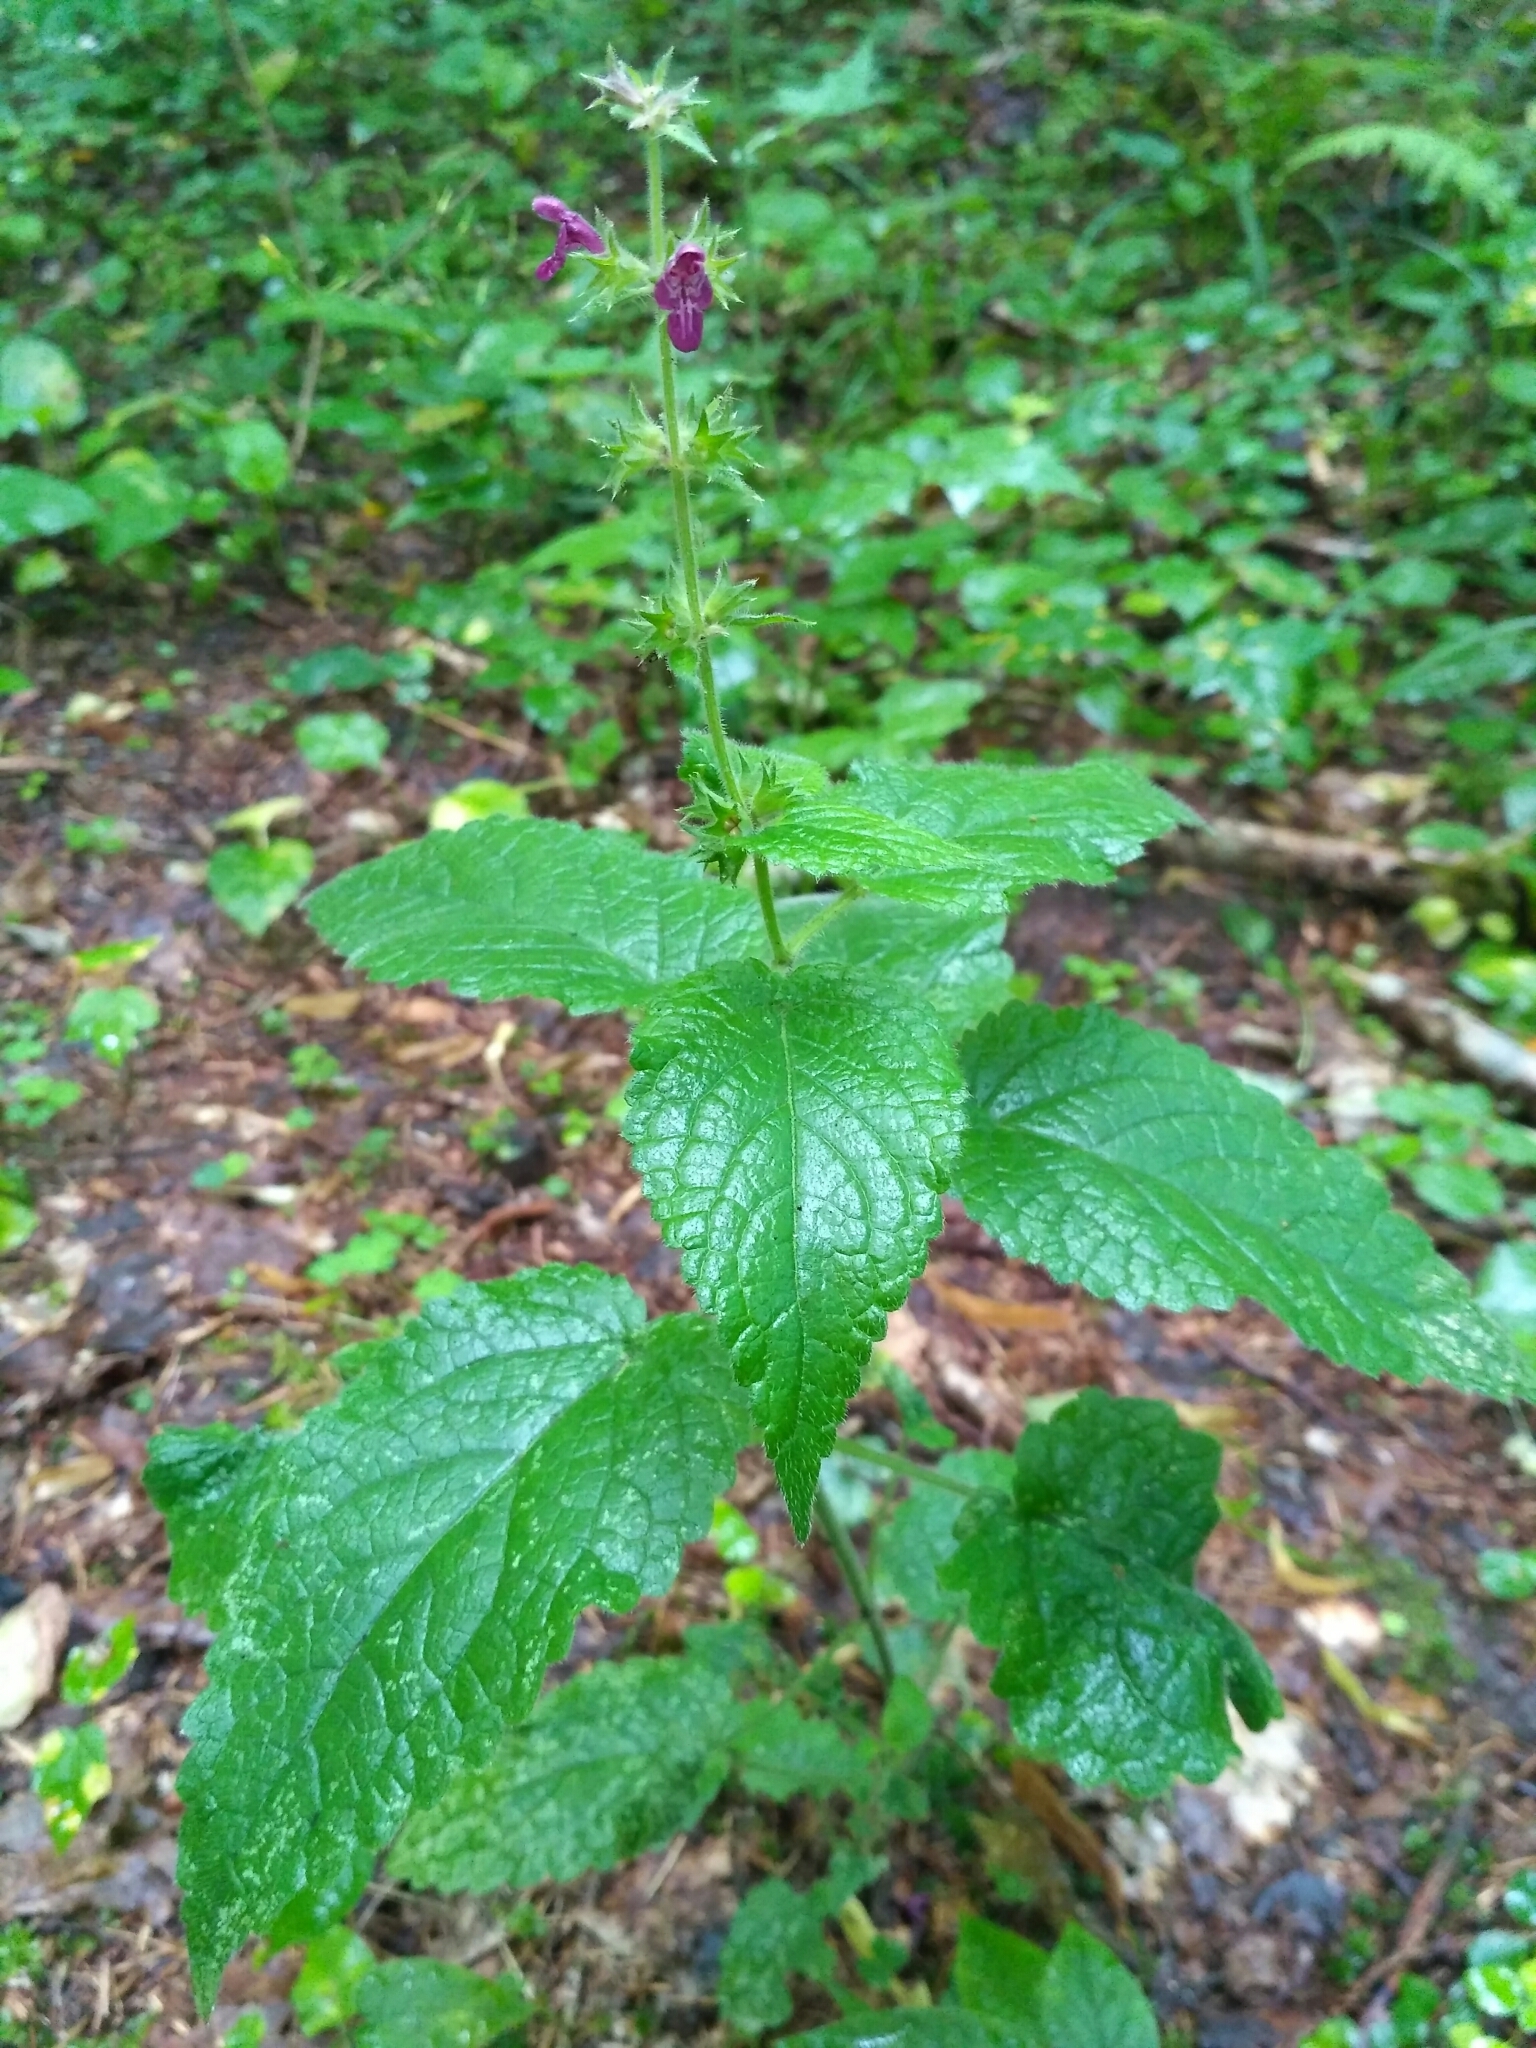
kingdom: Plantae
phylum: Tracheophyta
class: Magnoliopsida
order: Lamiales
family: Lamiaceae
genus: Stachys
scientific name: Stachys sylvatica
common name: Hedge woundwort
